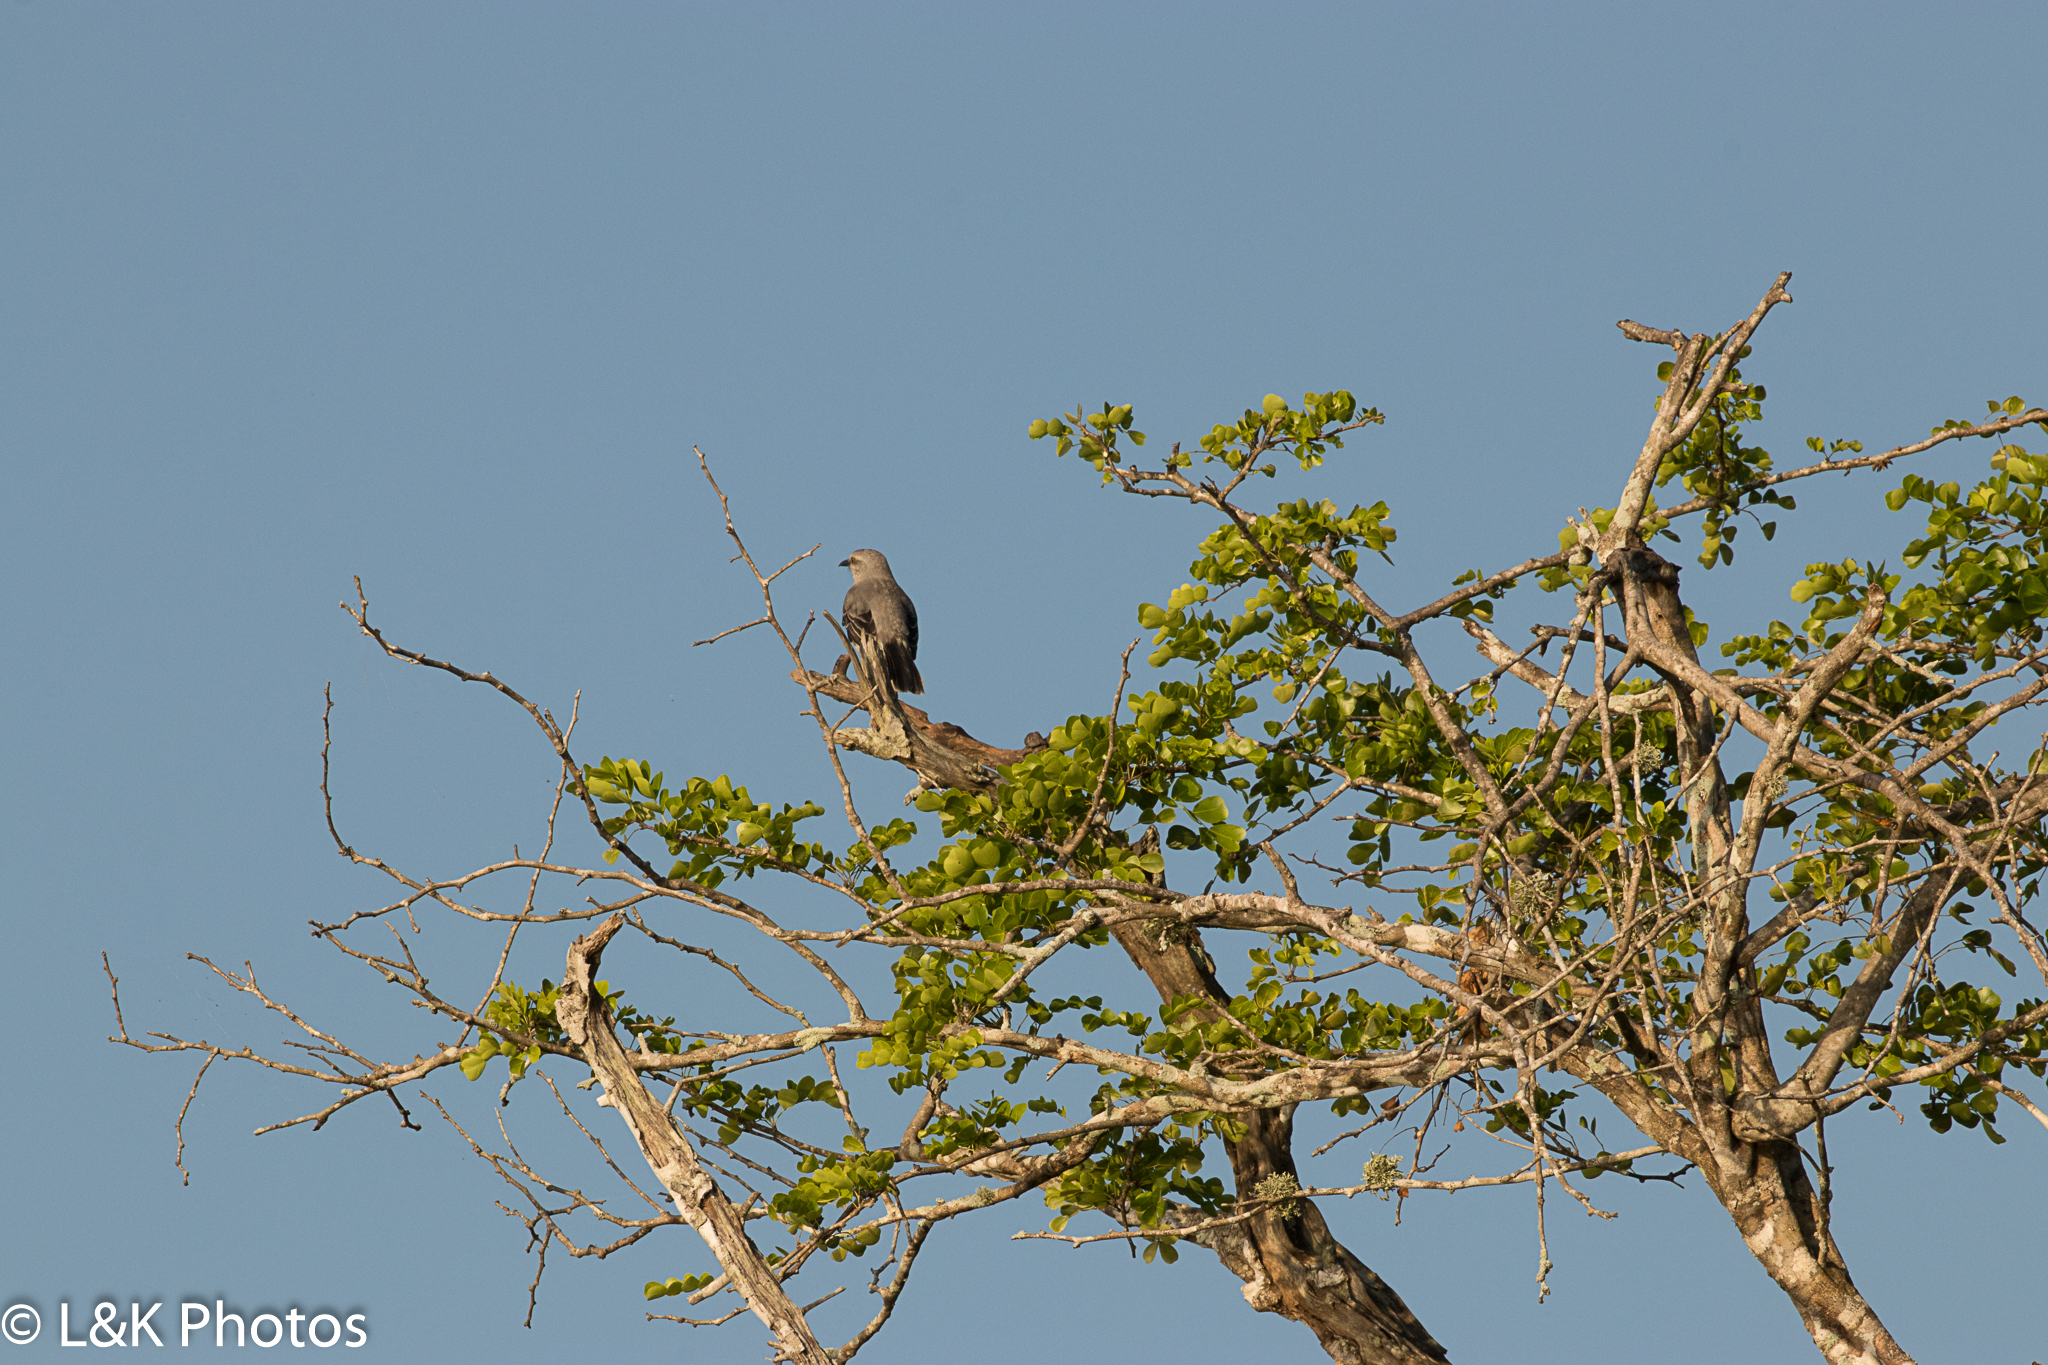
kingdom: Animalia
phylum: Chordata
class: Aves
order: Passeriformes
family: Mimidae
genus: Mimus
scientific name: Mimus gilvus
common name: Tropical mockingbird
